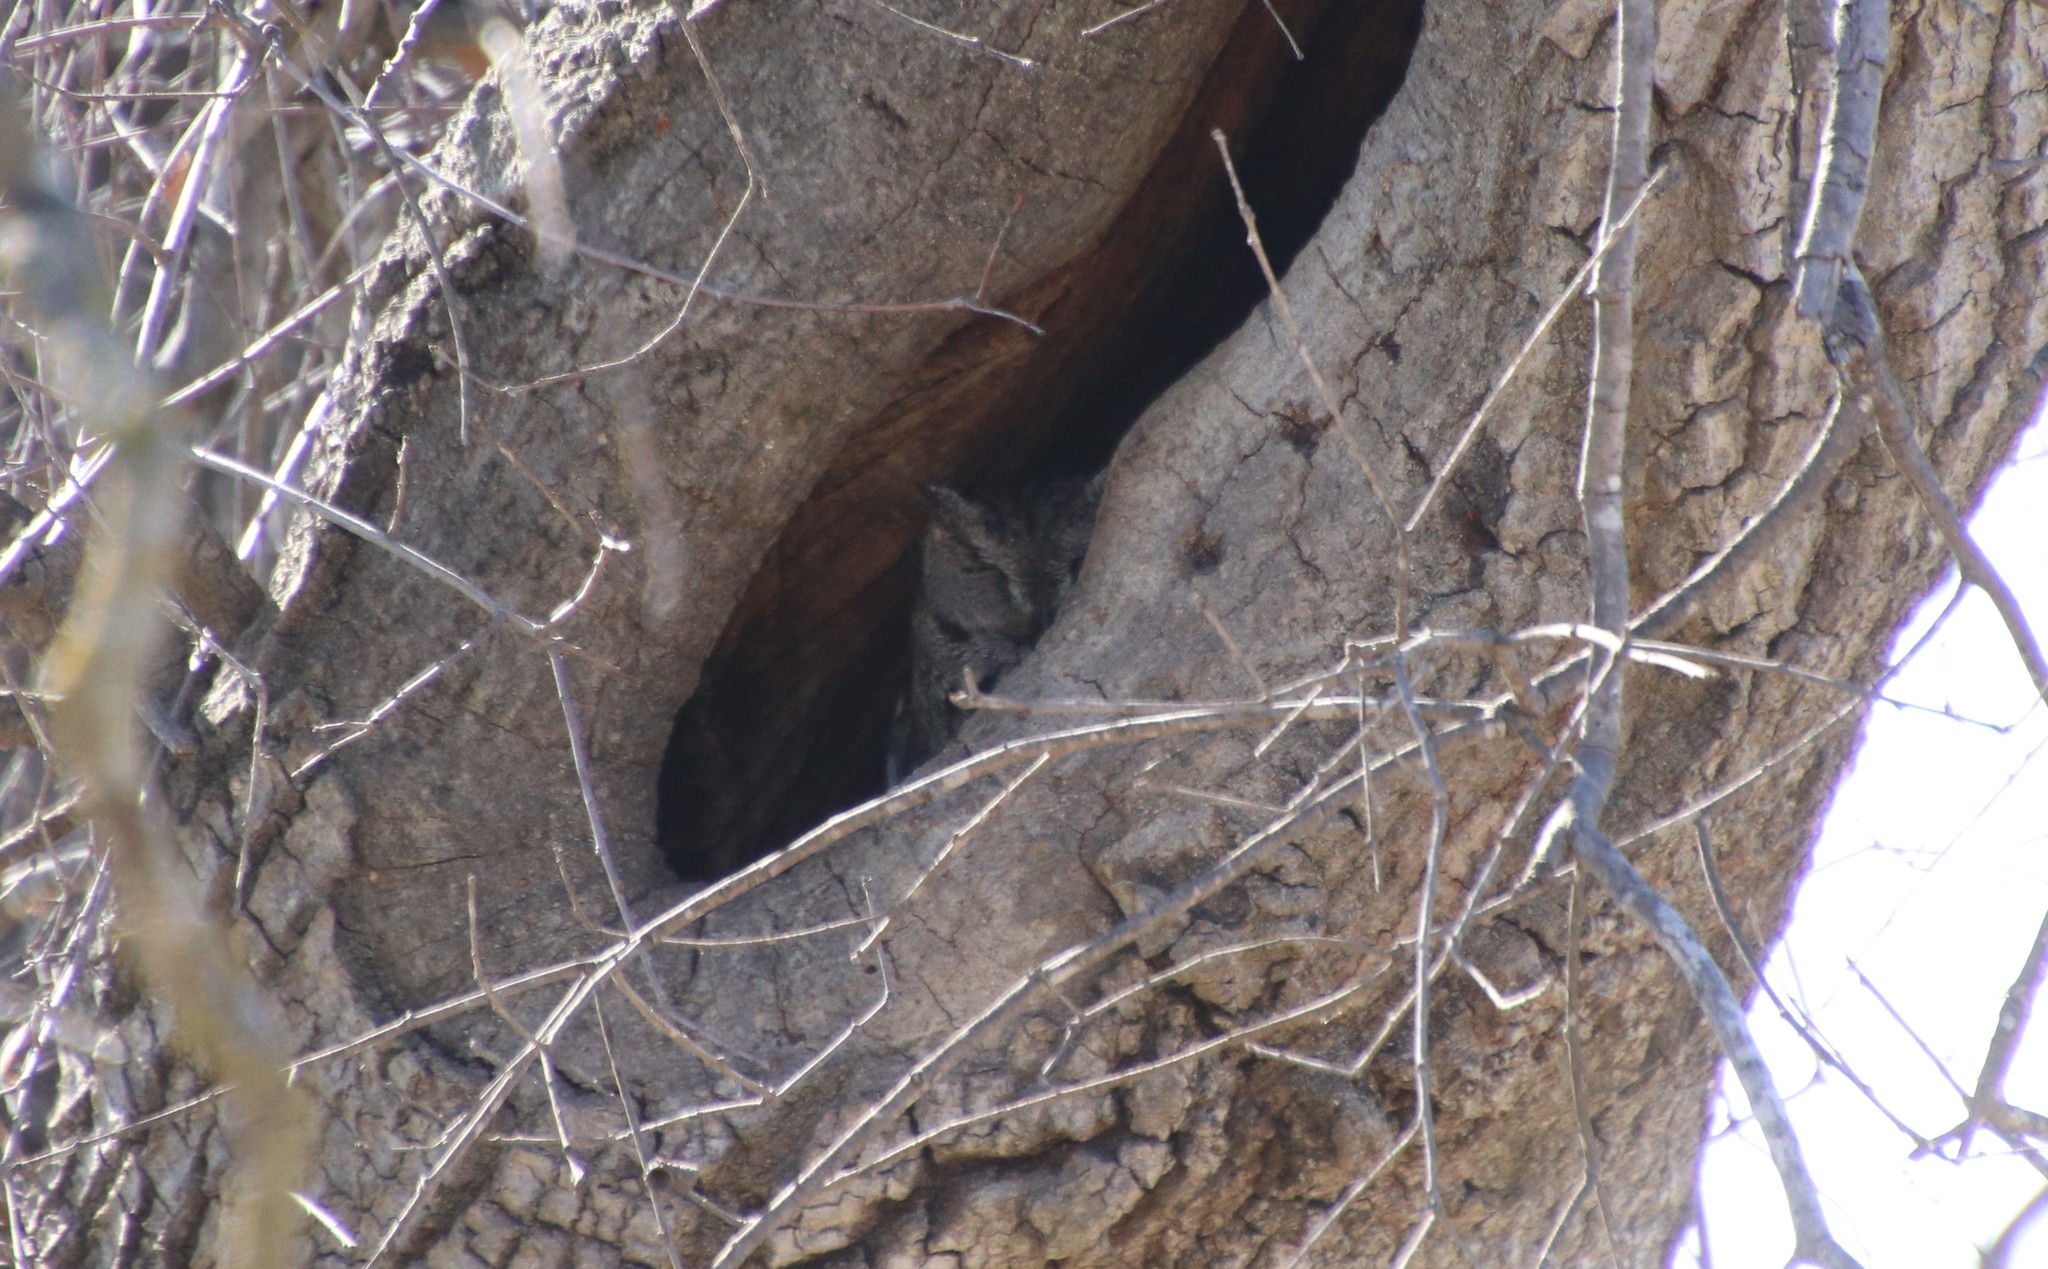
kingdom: Animalia
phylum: Chordata
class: Aves
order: Strigiformes
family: Strigidae
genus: Megascops
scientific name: Megascops kennicottii
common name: Western screech-owl
